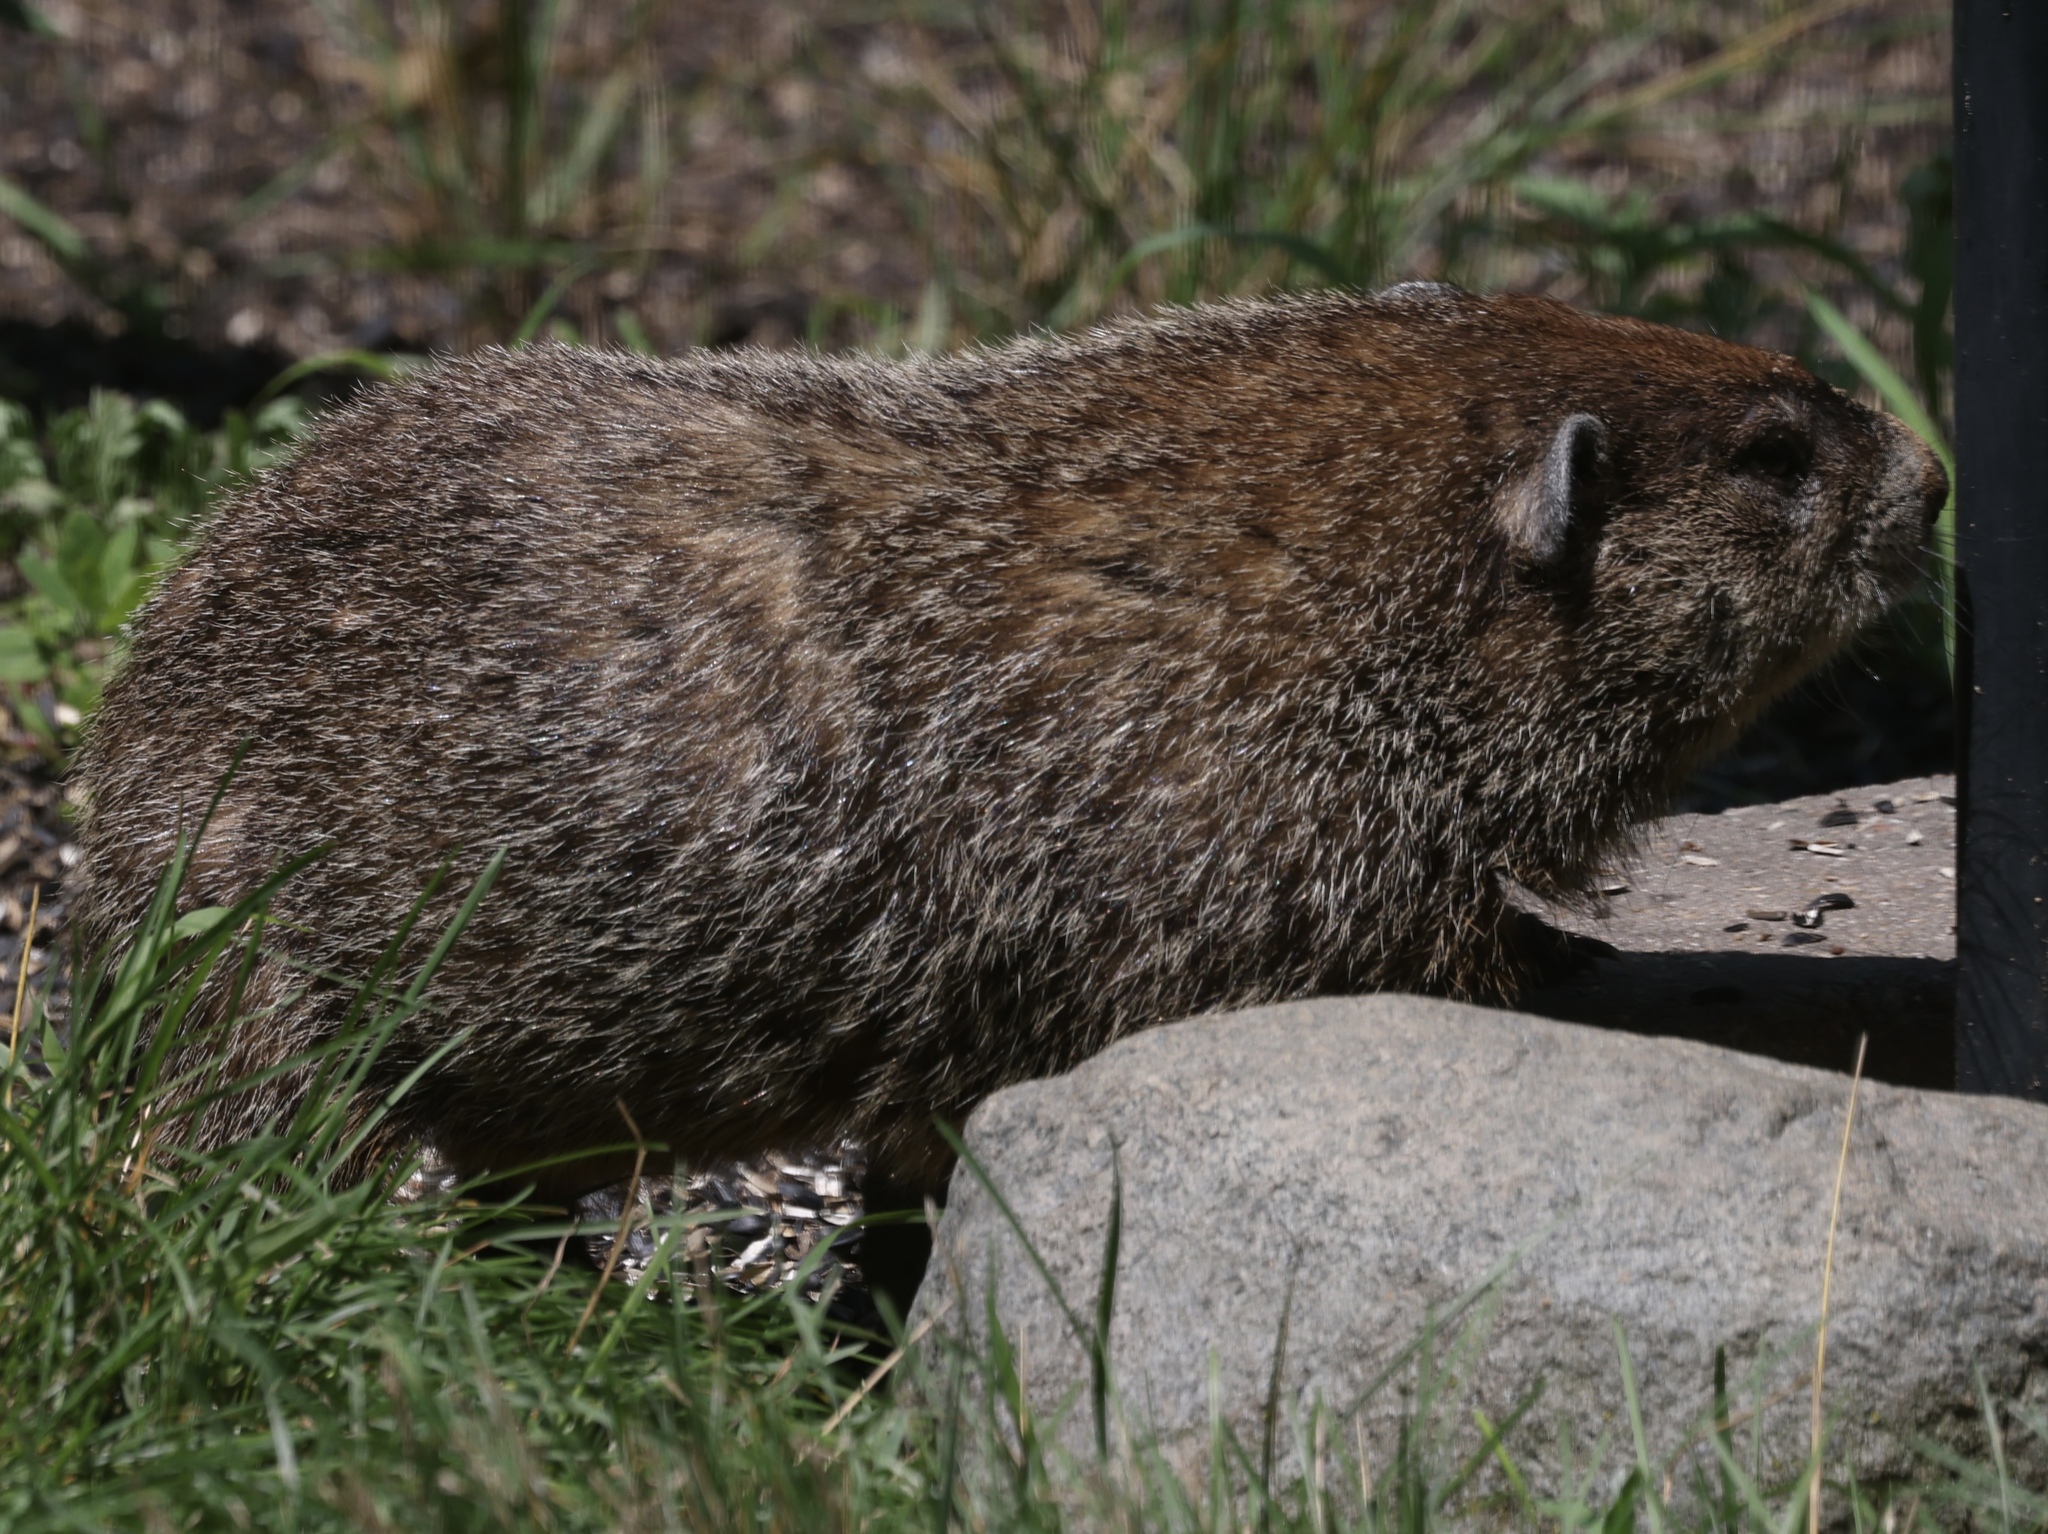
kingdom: Animalia
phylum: Chordata
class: Mammalia
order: Rodentia
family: Sciuridae
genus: Marmota
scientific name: Marmota monax
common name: Groundhog
